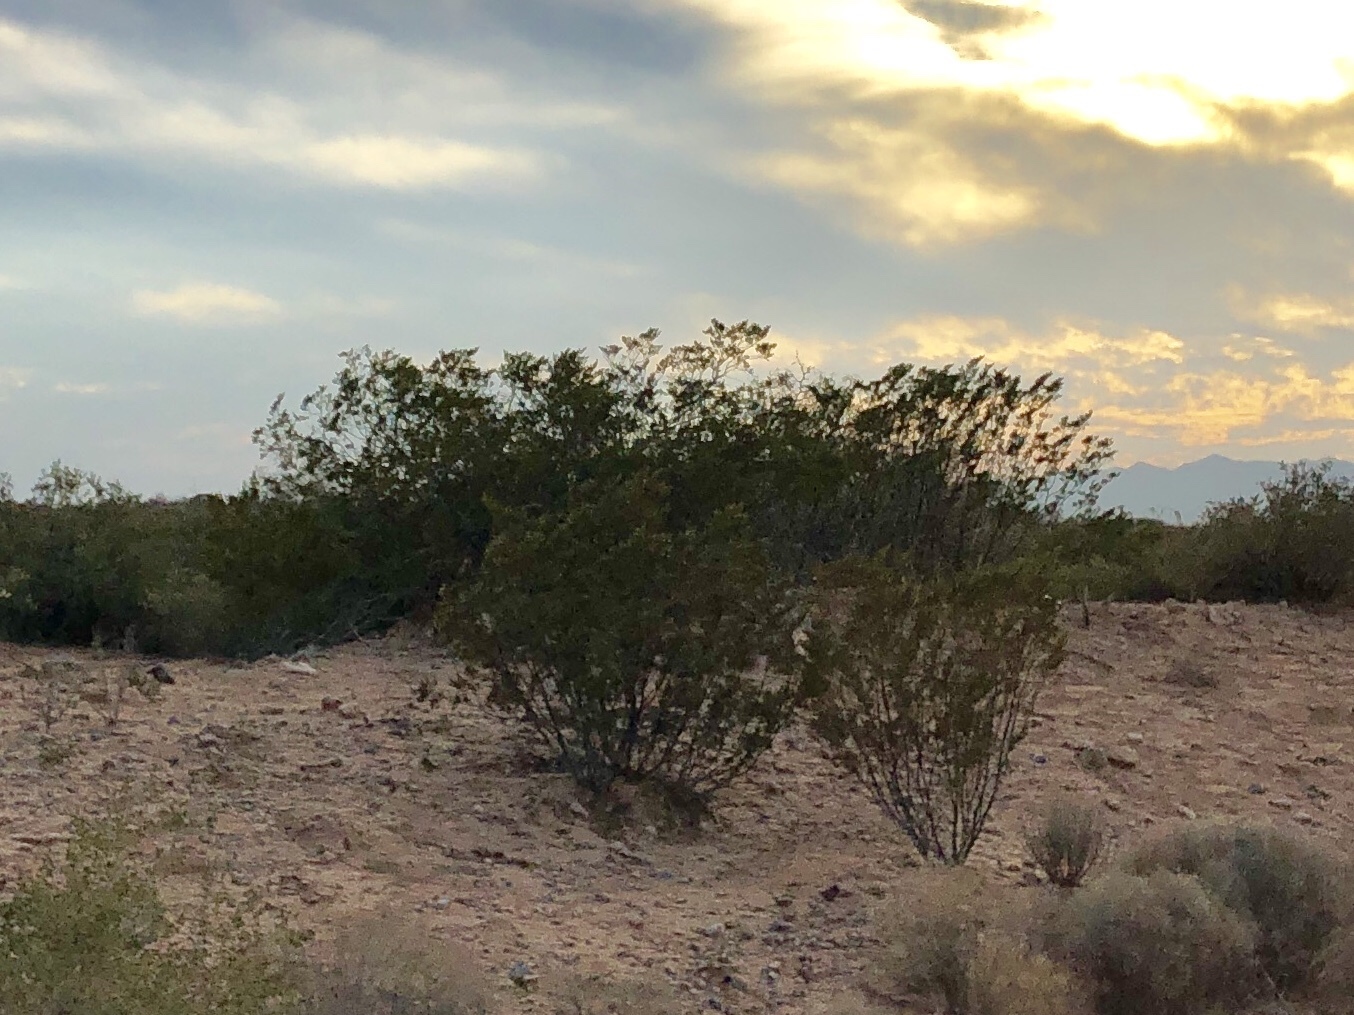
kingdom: Plantae
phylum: Tracheophyta
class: Magnoliopsida
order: Zygophyllales
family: Zygophyllaceae
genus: Larrea
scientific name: Larrea tridentata
